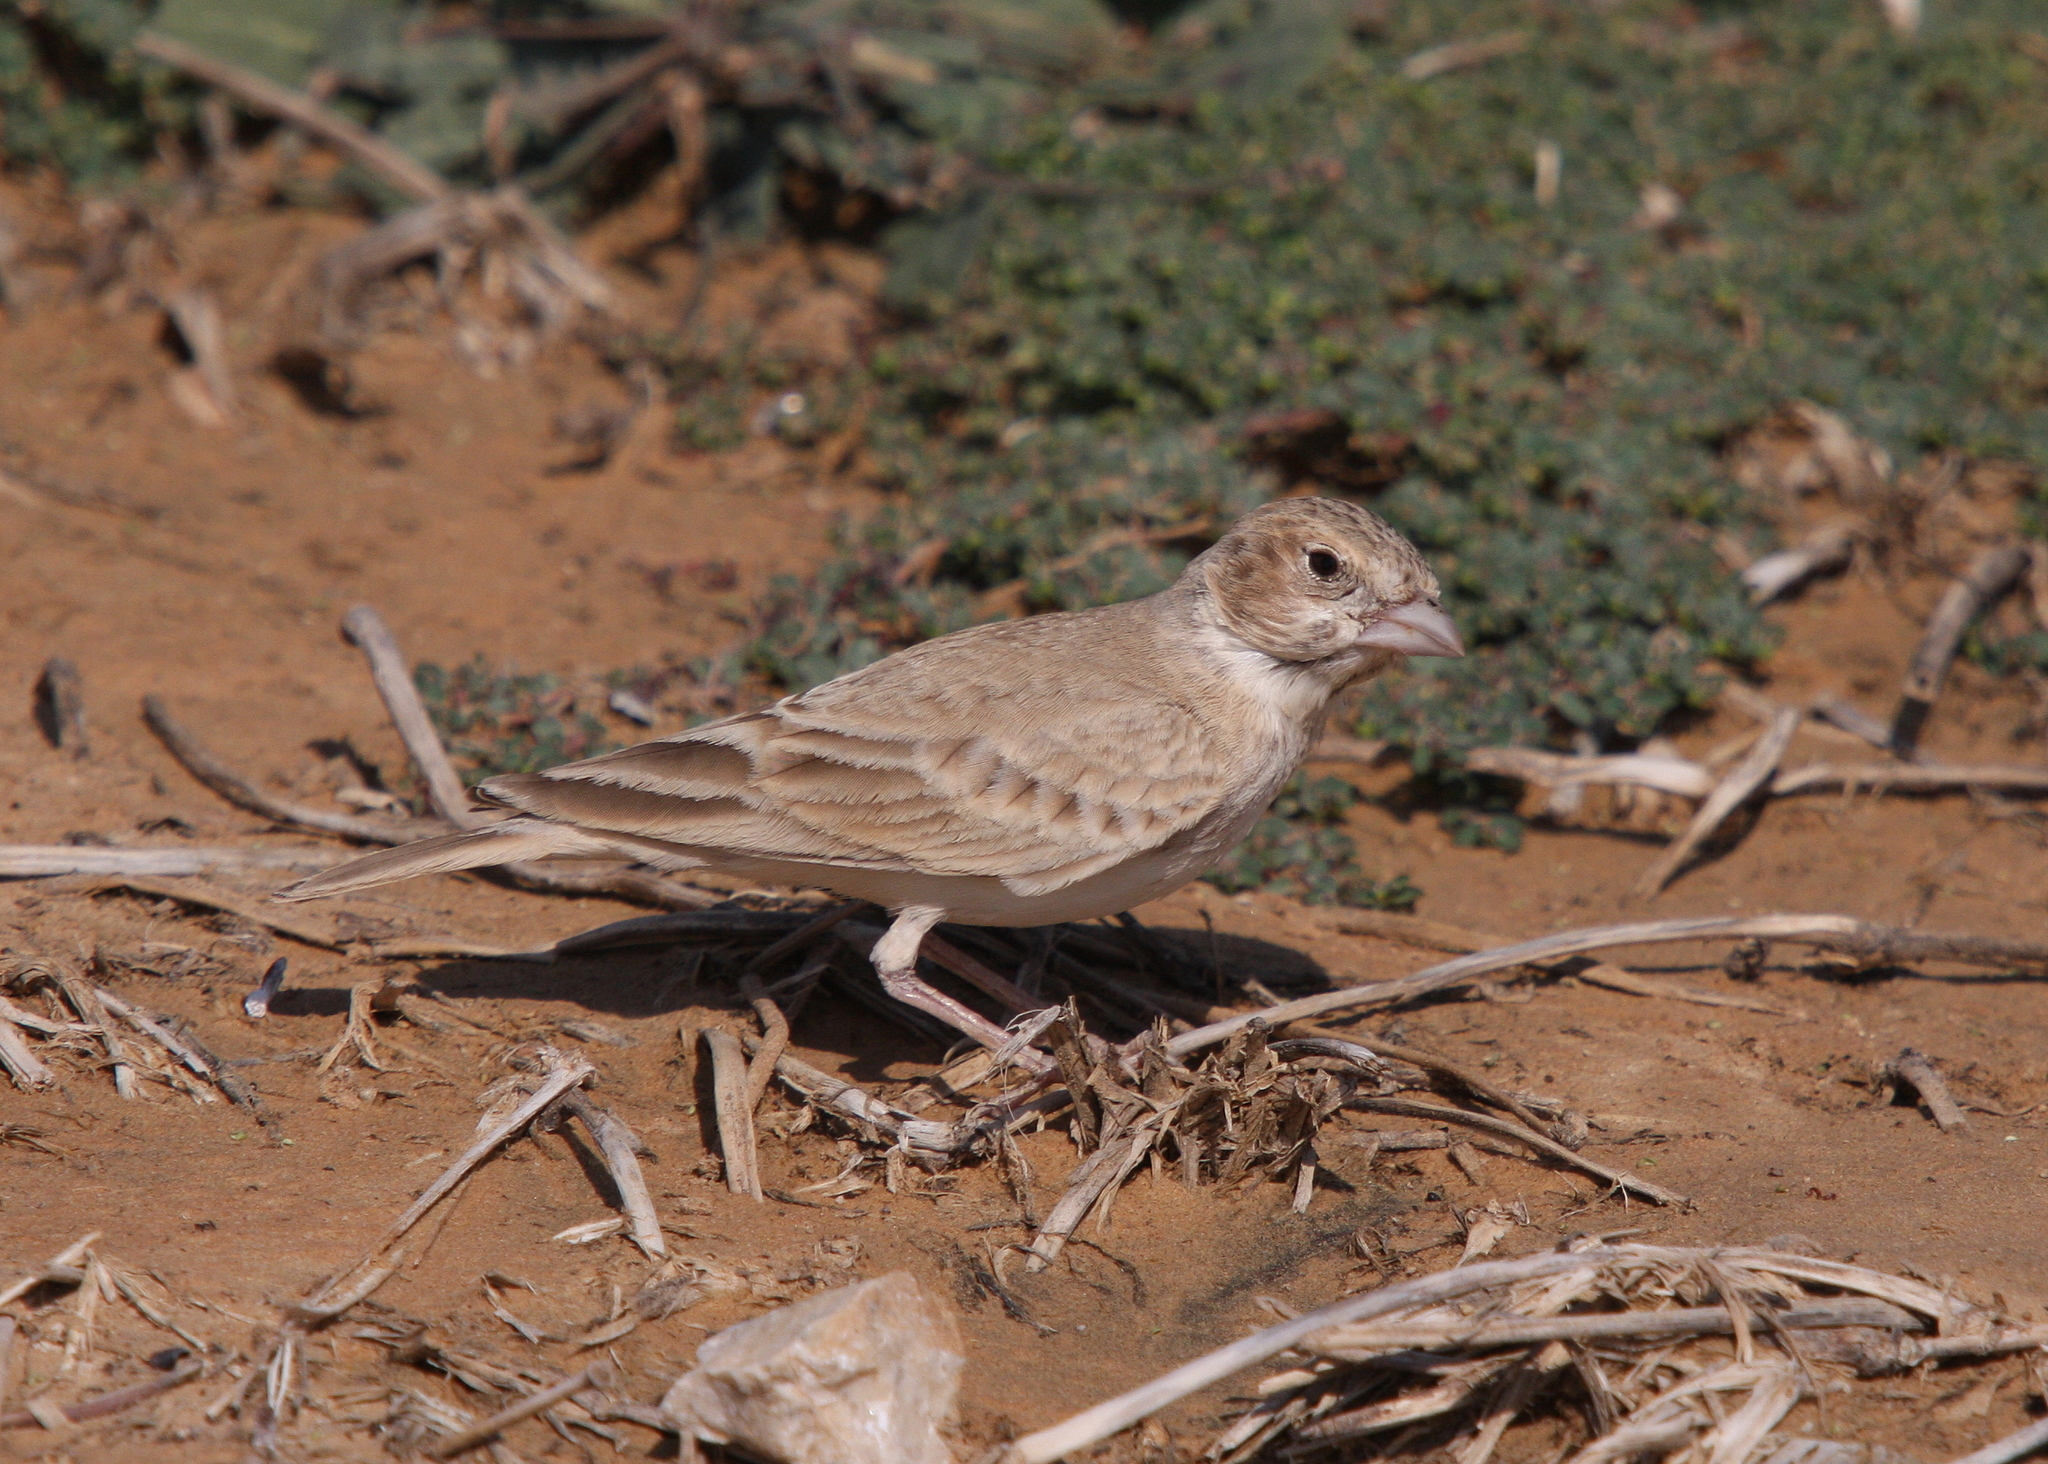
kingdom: Animalia
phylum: Chordata
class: Aves
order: Passeriformes
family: Alaudidae
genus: Eremopterix
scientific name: Eremopterix nigriceps
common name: Black-crowned sparrow-lark
